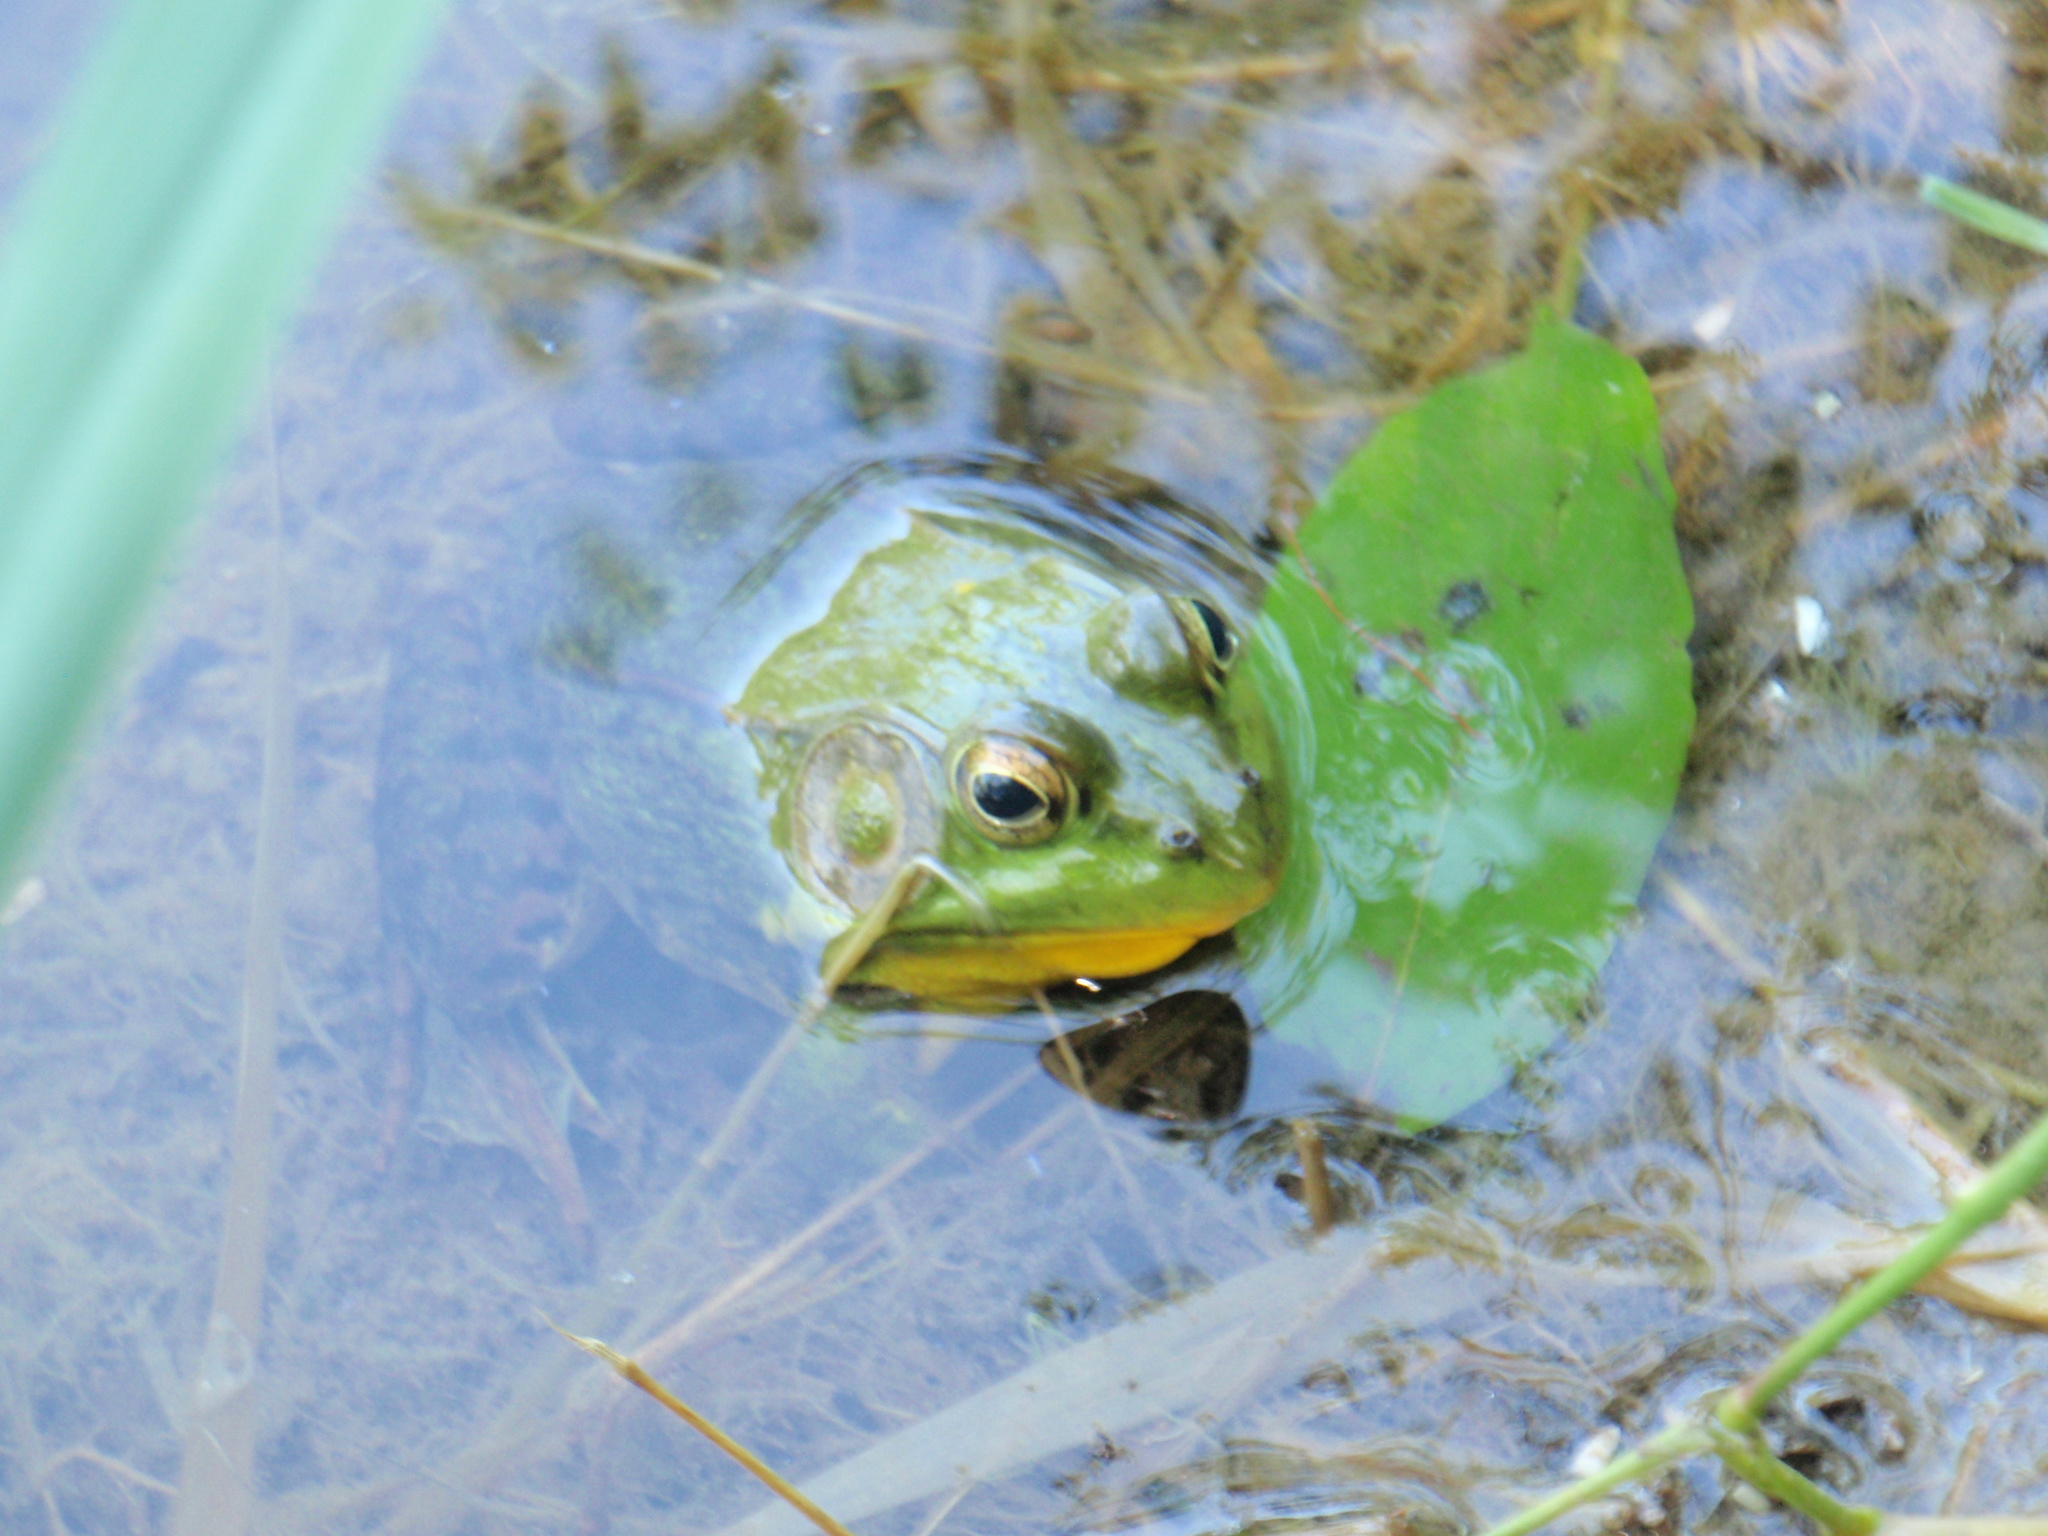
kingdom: Animalia
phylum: Chordata
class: Amphibia
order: Anura
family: Ranidae
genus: Lithobates
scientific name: Lithobates clamitans
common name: Green frog
